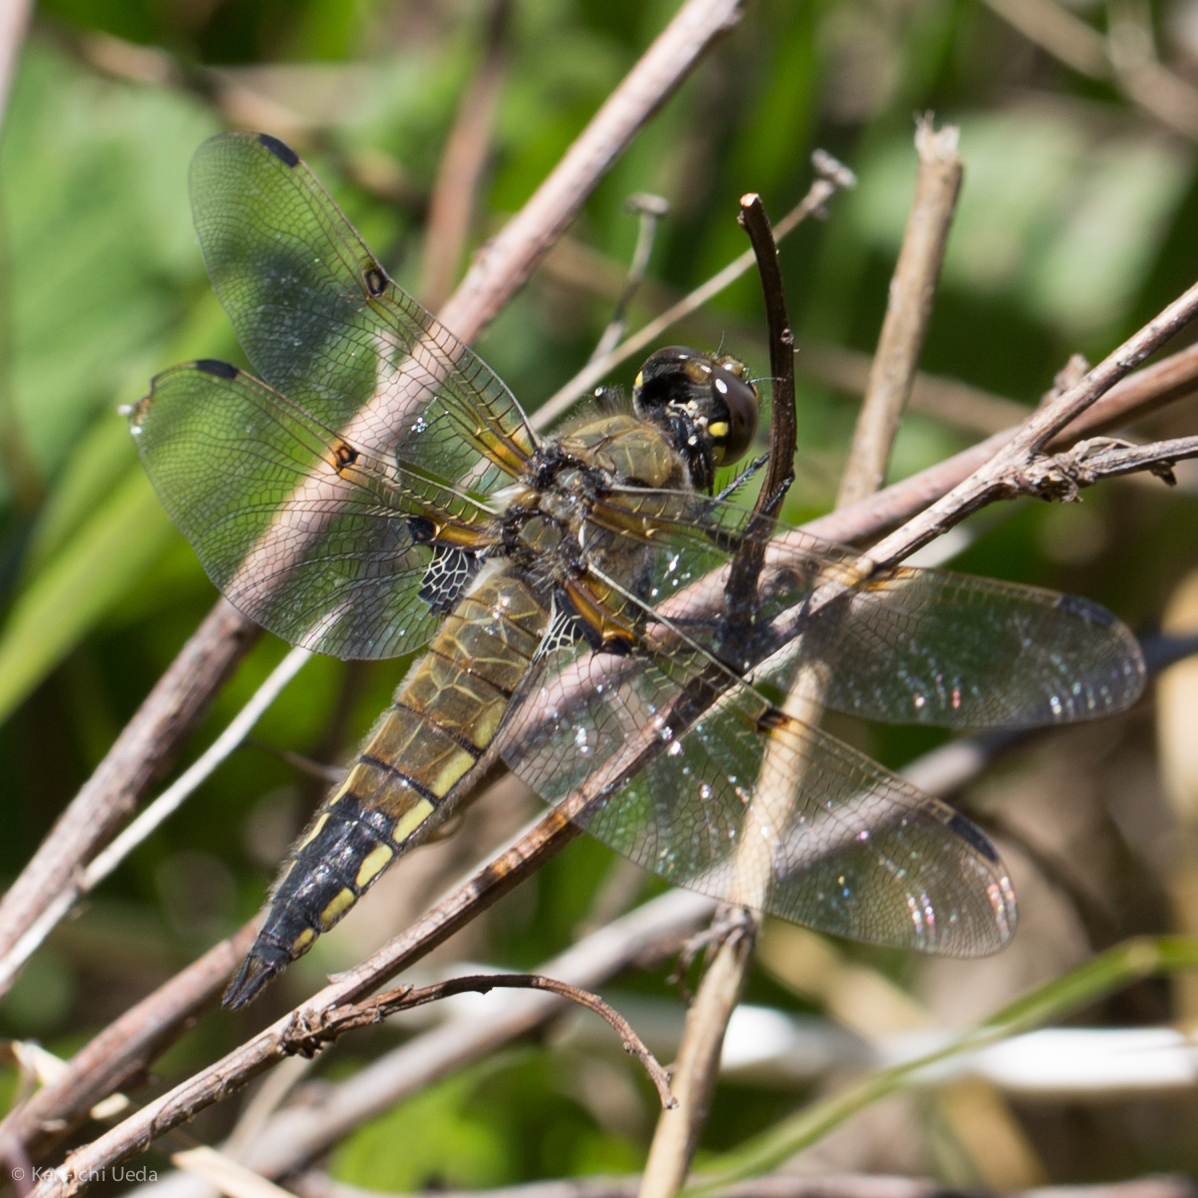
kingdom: Animalia
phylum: Arthropoda
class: Insecta
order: Odonata
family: Libellulidae
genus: Libellula
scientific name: Libellula quadrimaculata
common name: Four-spotted chaser
